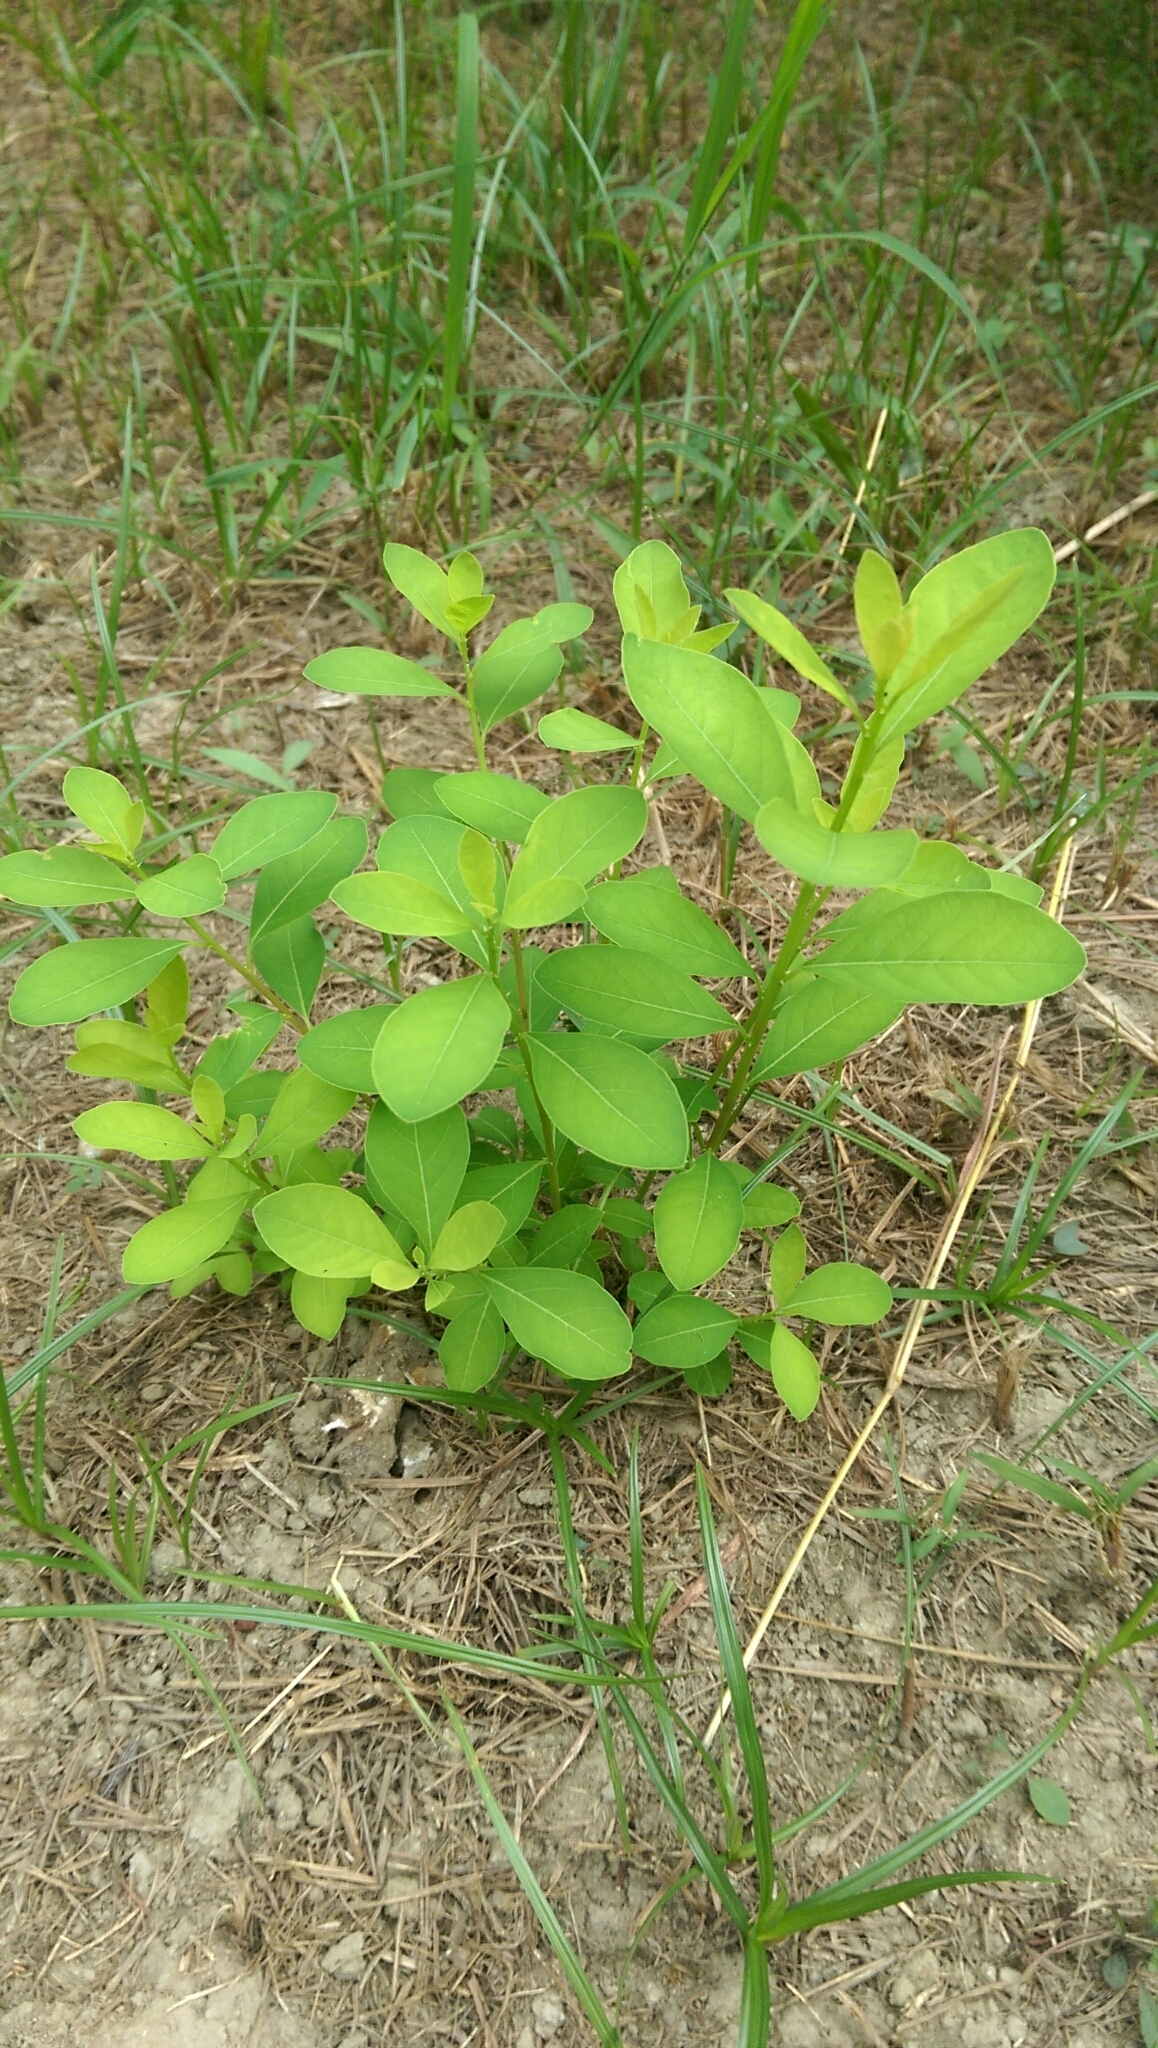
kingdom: Plantae
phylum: Tracheophyta
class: Magnoliopsida
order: Malpighiales
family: Phyllanthaceae
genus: Flueggea
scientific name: Flueggea virosa
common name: Common bushweed
